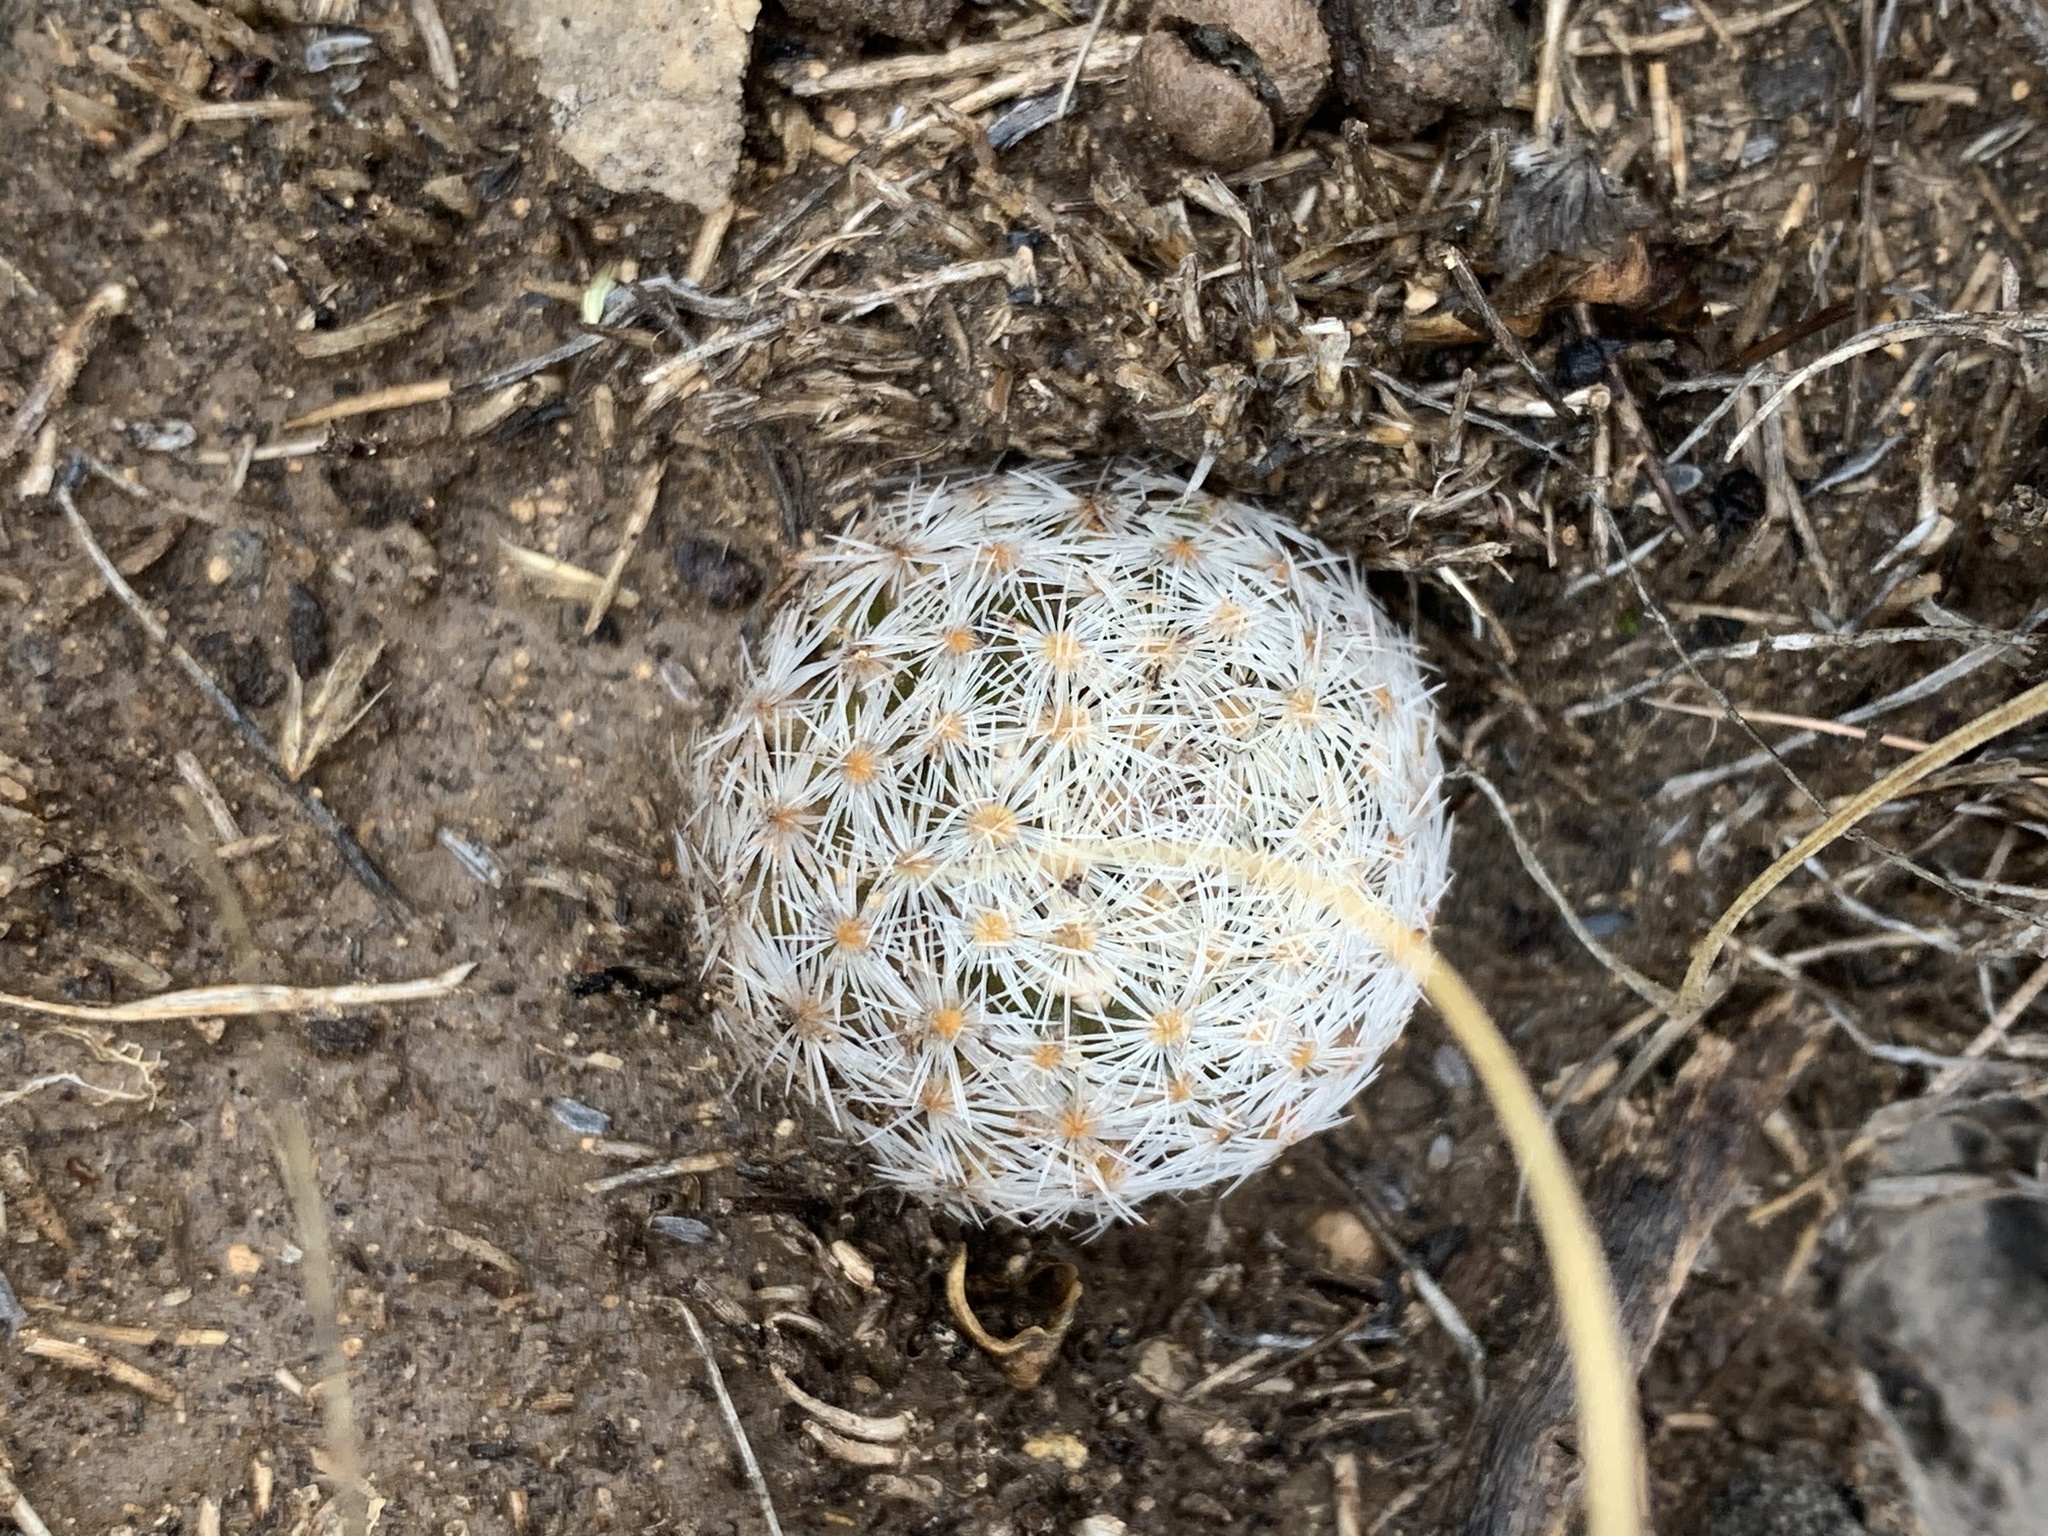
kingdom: Plantae
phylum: Tracheophyta
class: Magnoliopsida
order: Caryophyllales
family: Cactaceae
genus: Mammillaria
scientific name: Mammillaria lasiacantha
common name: Lace-spine nipple cactus
